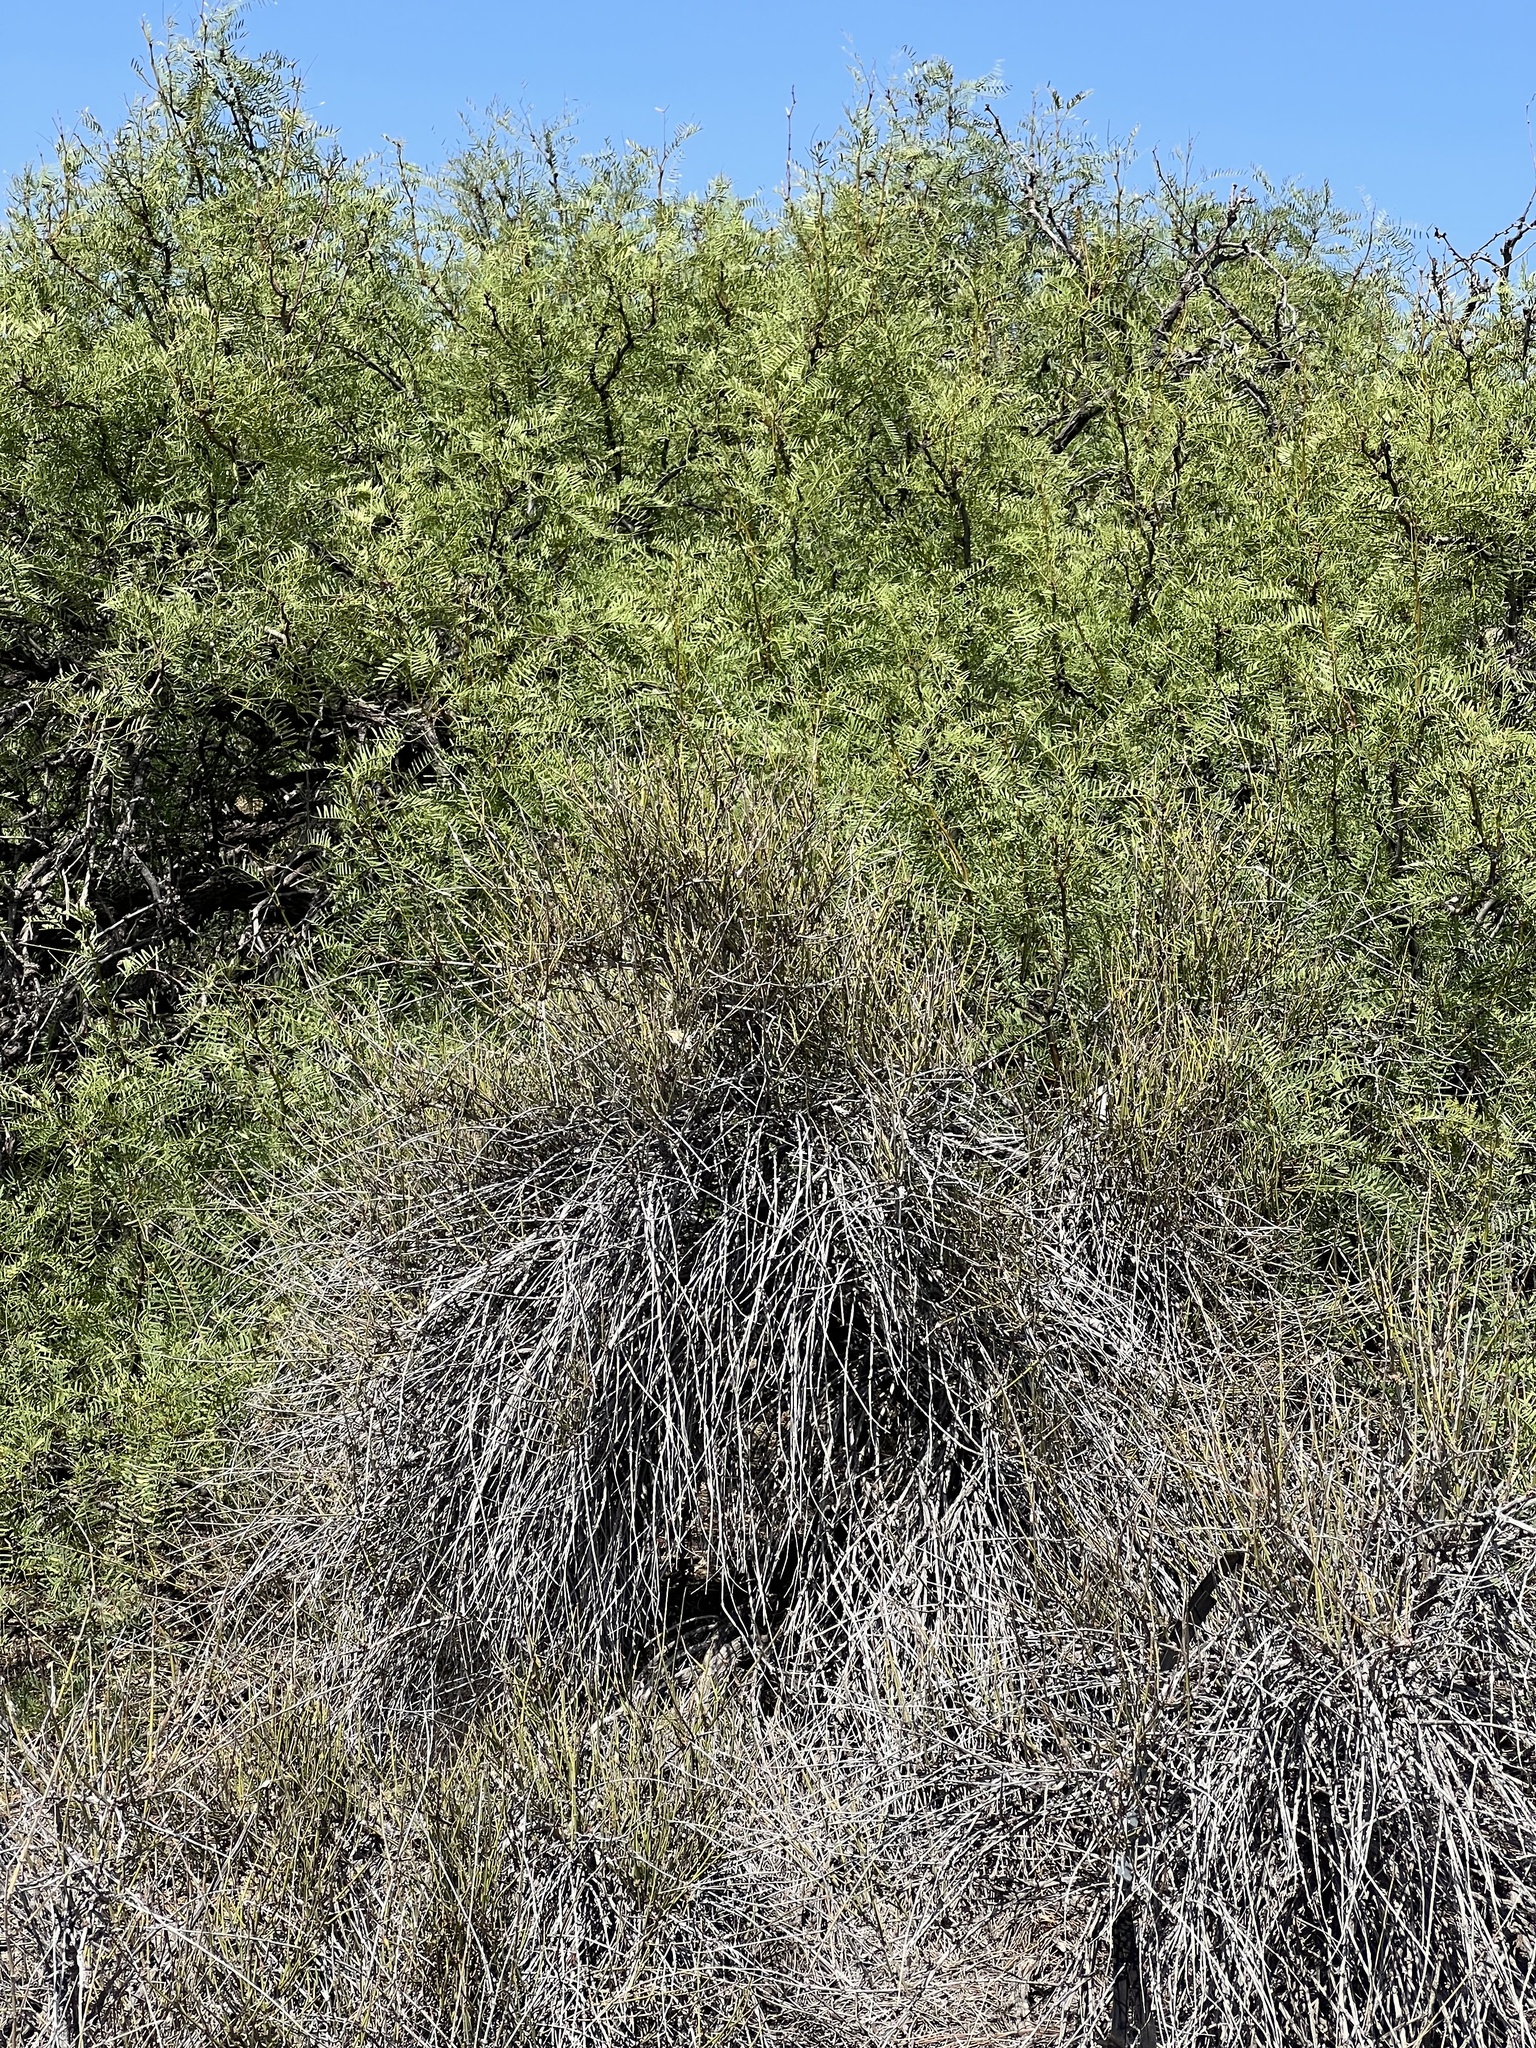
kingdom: Plantae
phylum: Tracheophyta
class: Gnetopsida
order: Ephedrales
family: Ephedraceae
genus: Ephedra
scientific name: Ephedra trifurca
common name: Mexican-tea
